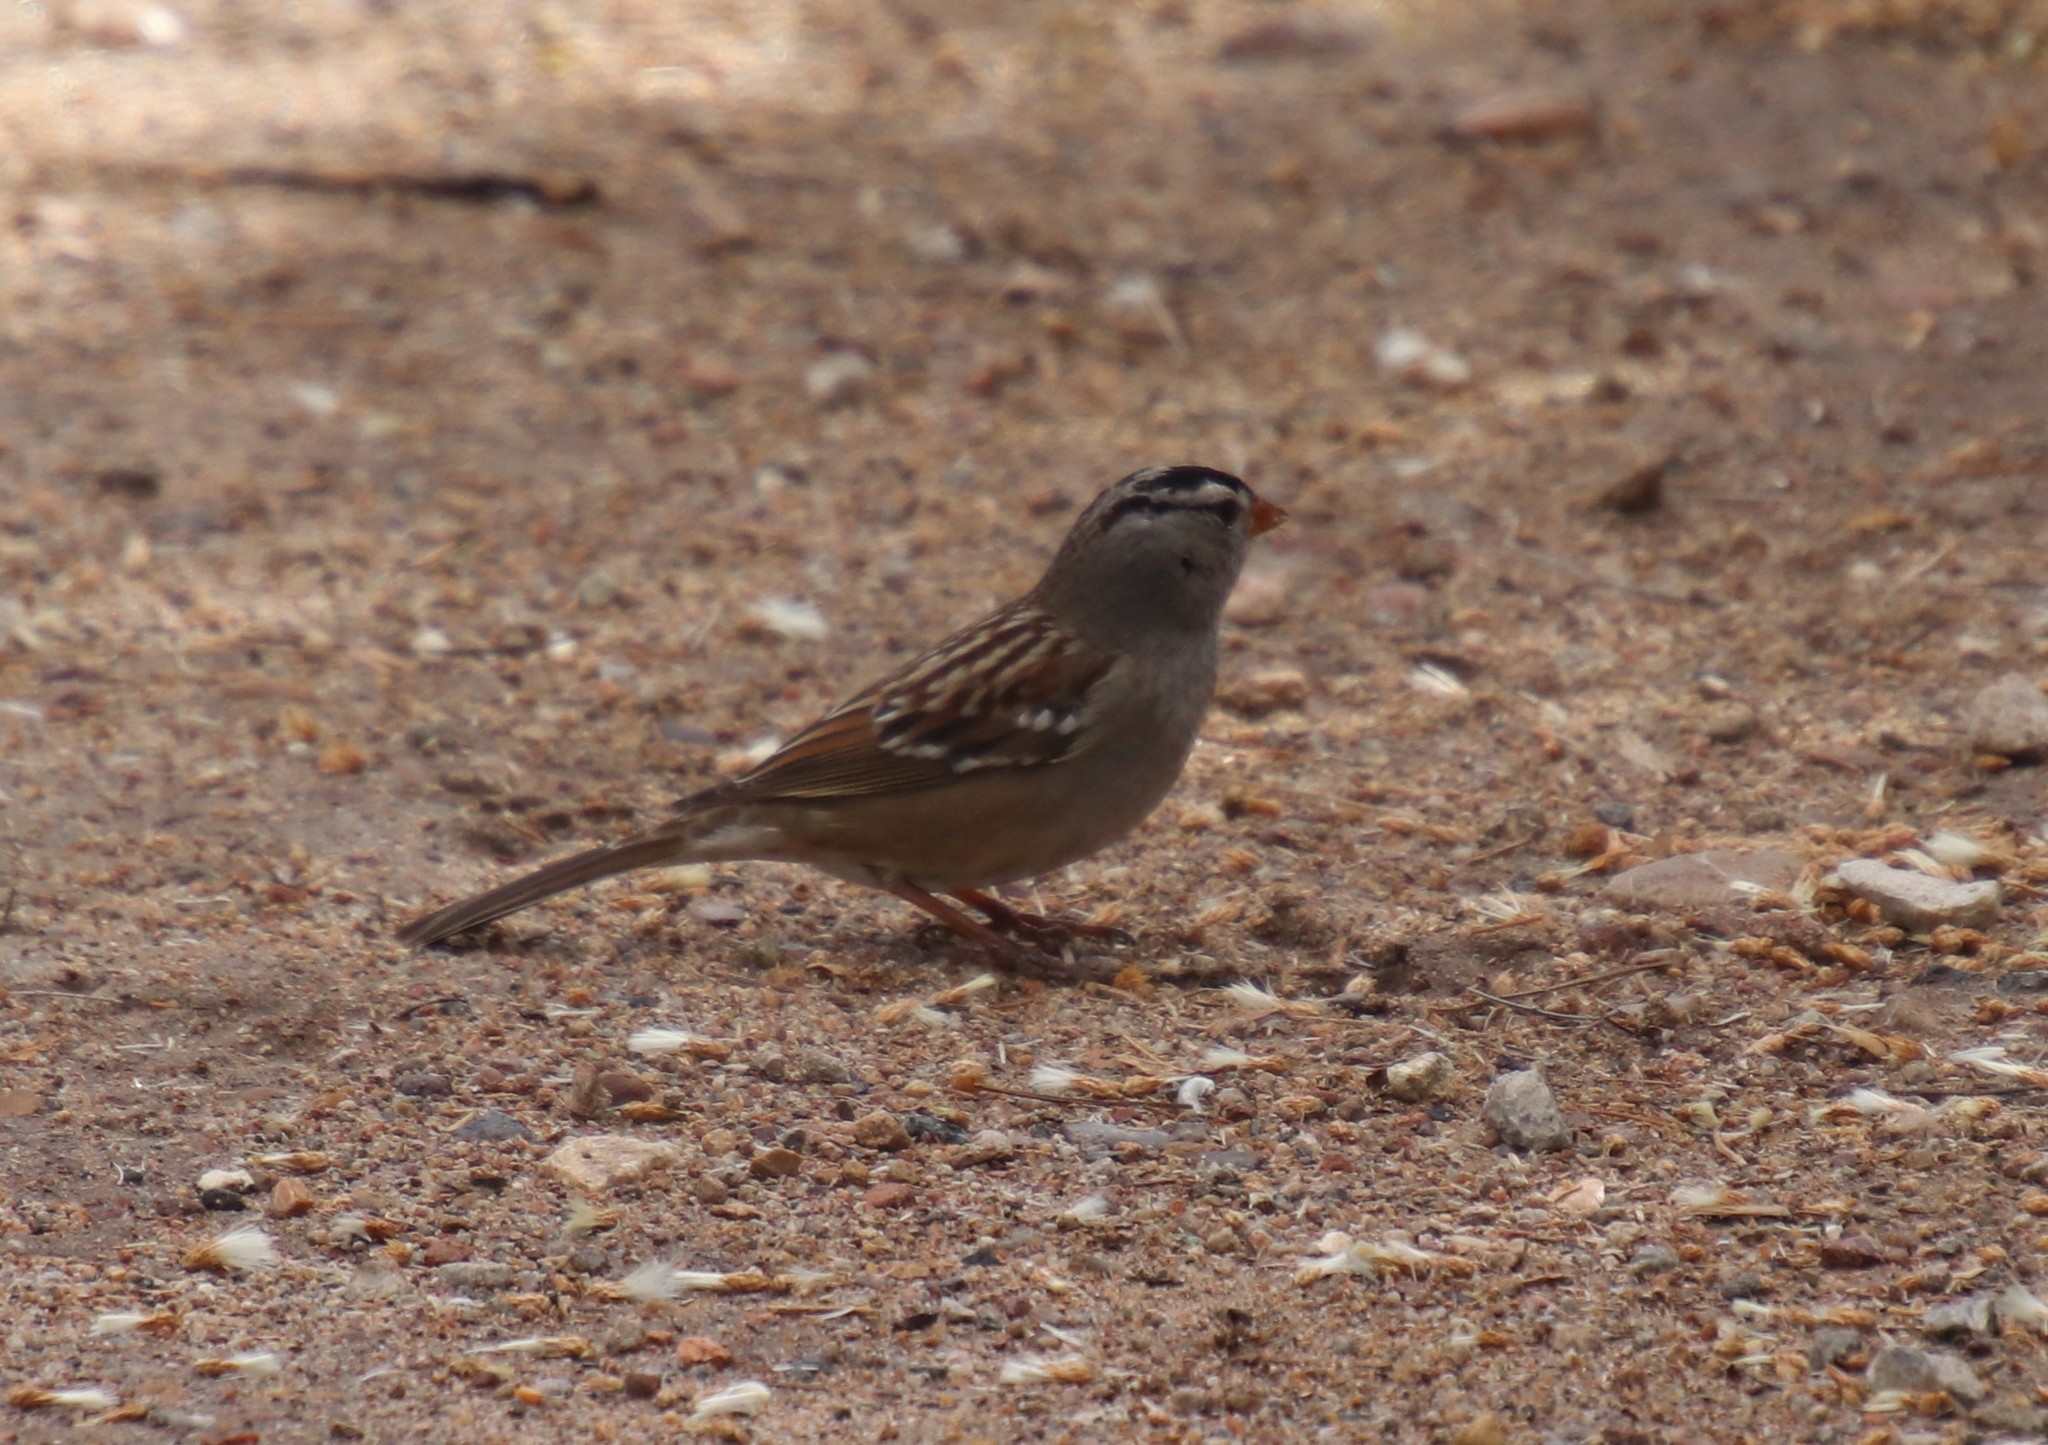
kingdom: Animalia
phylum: Chordata
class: Aves
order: Passeriformes
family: Passerellidae
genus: Zonotrichia
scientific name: Zonotrichia leucophrys
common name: White-crowned sparrow
